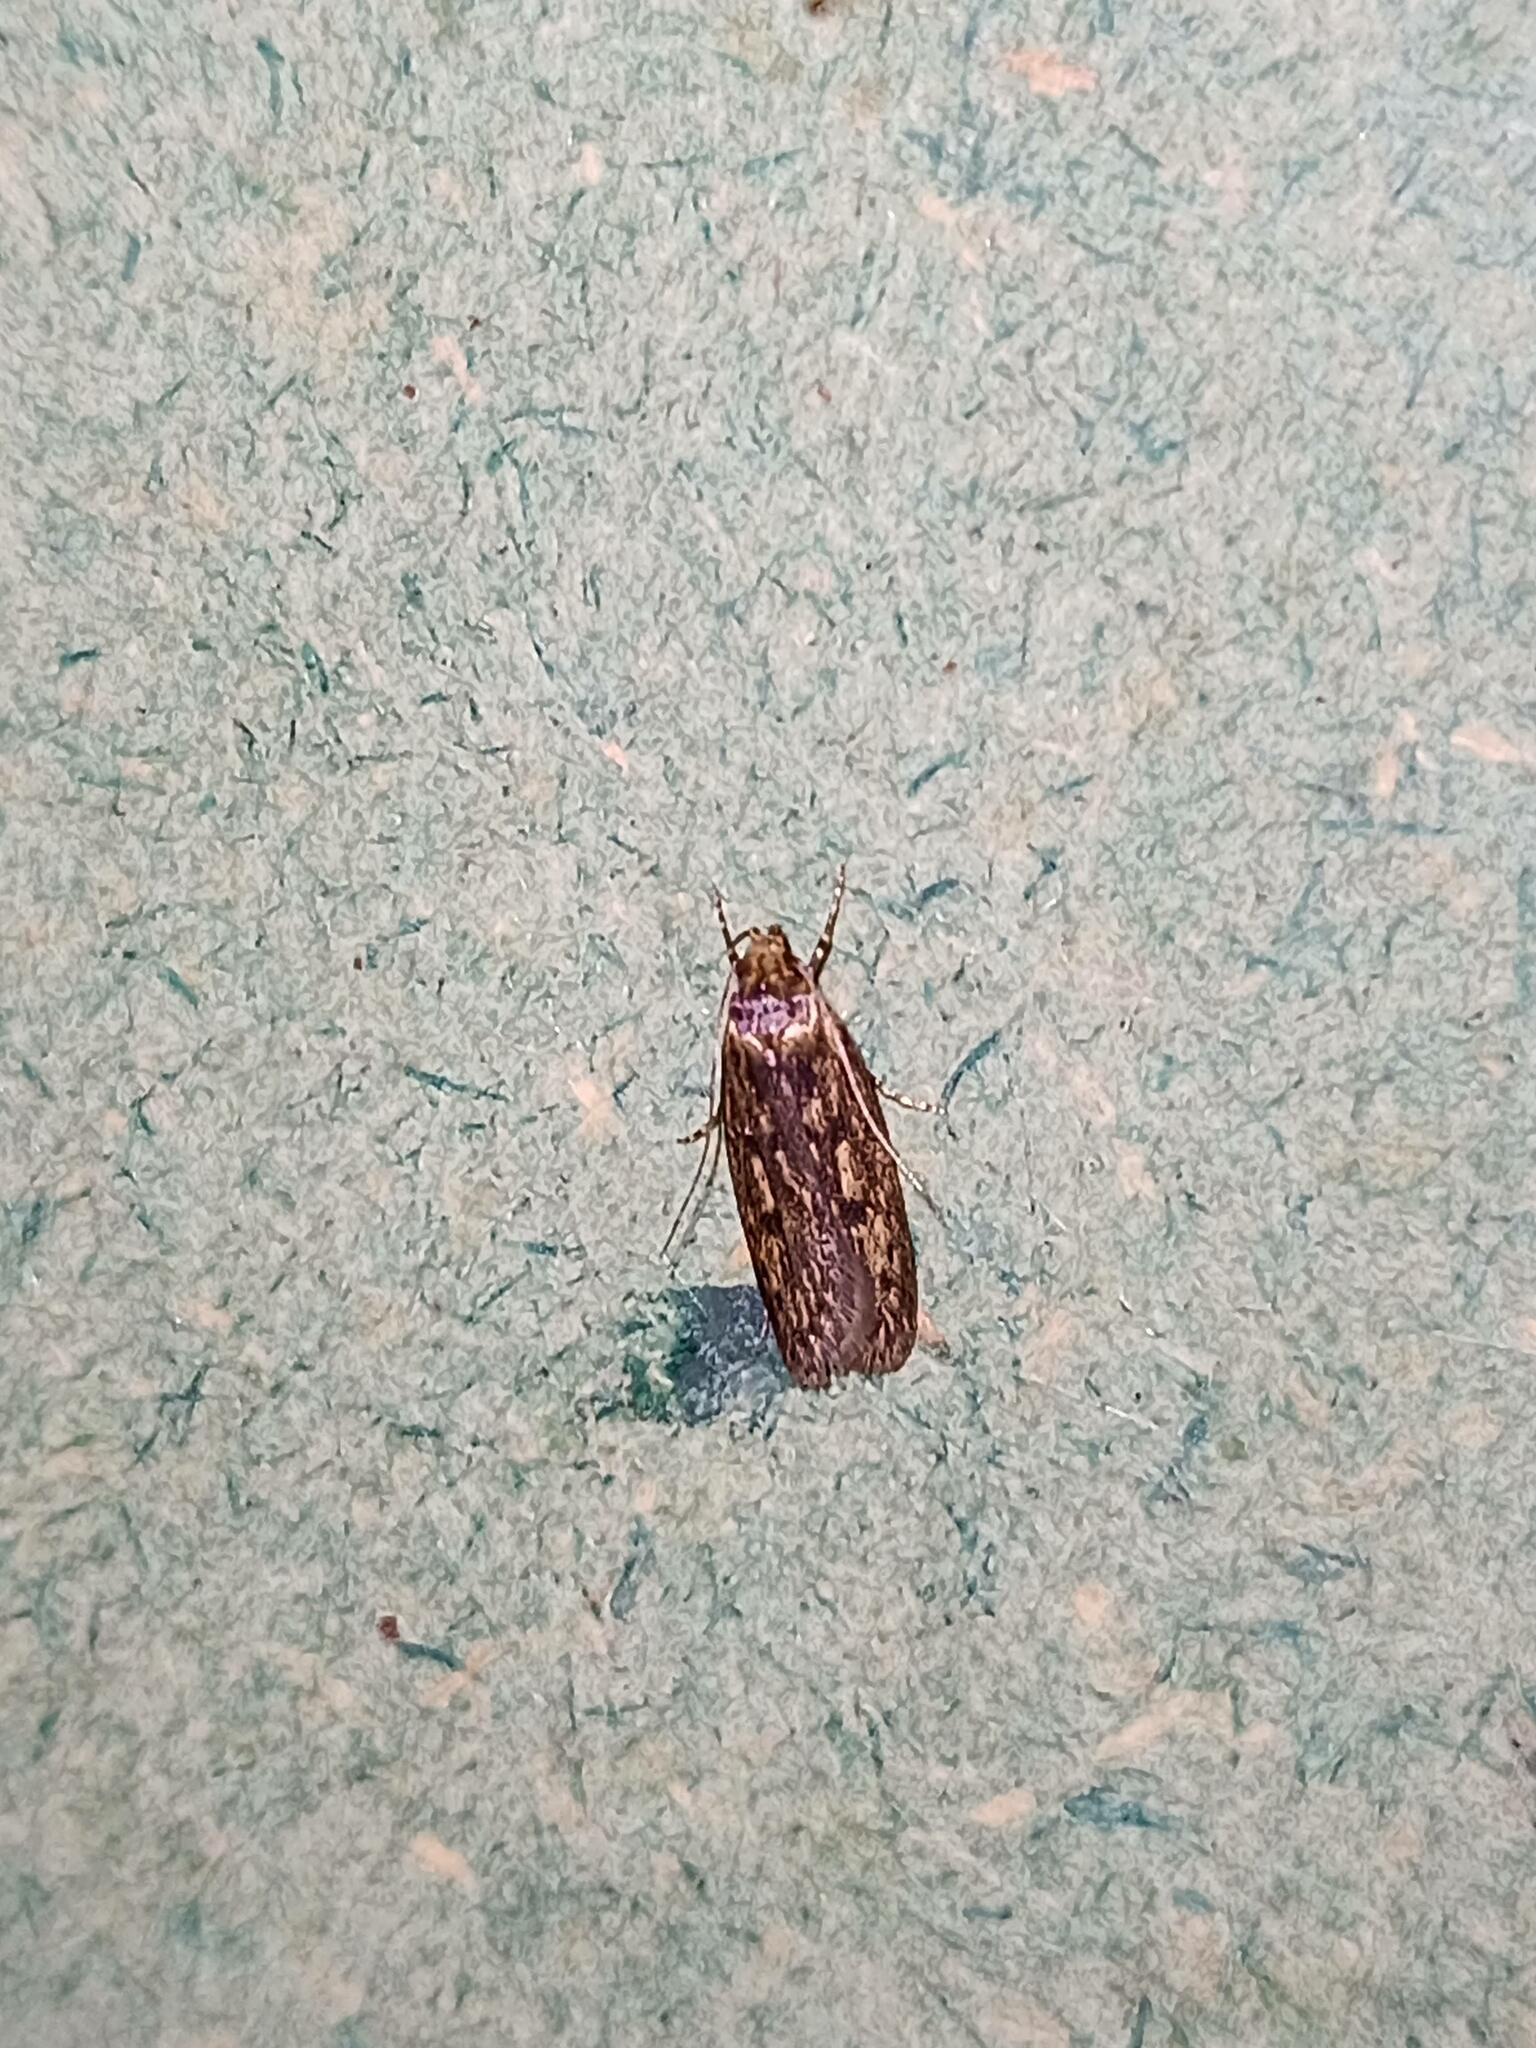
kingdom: Animalia
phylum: Arthropoda
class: Insecta
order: Lepidoptera
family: Oecophoridae
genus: Hofmannophila
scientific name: Hofmannophila pseudospretella
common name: Brown house moth
